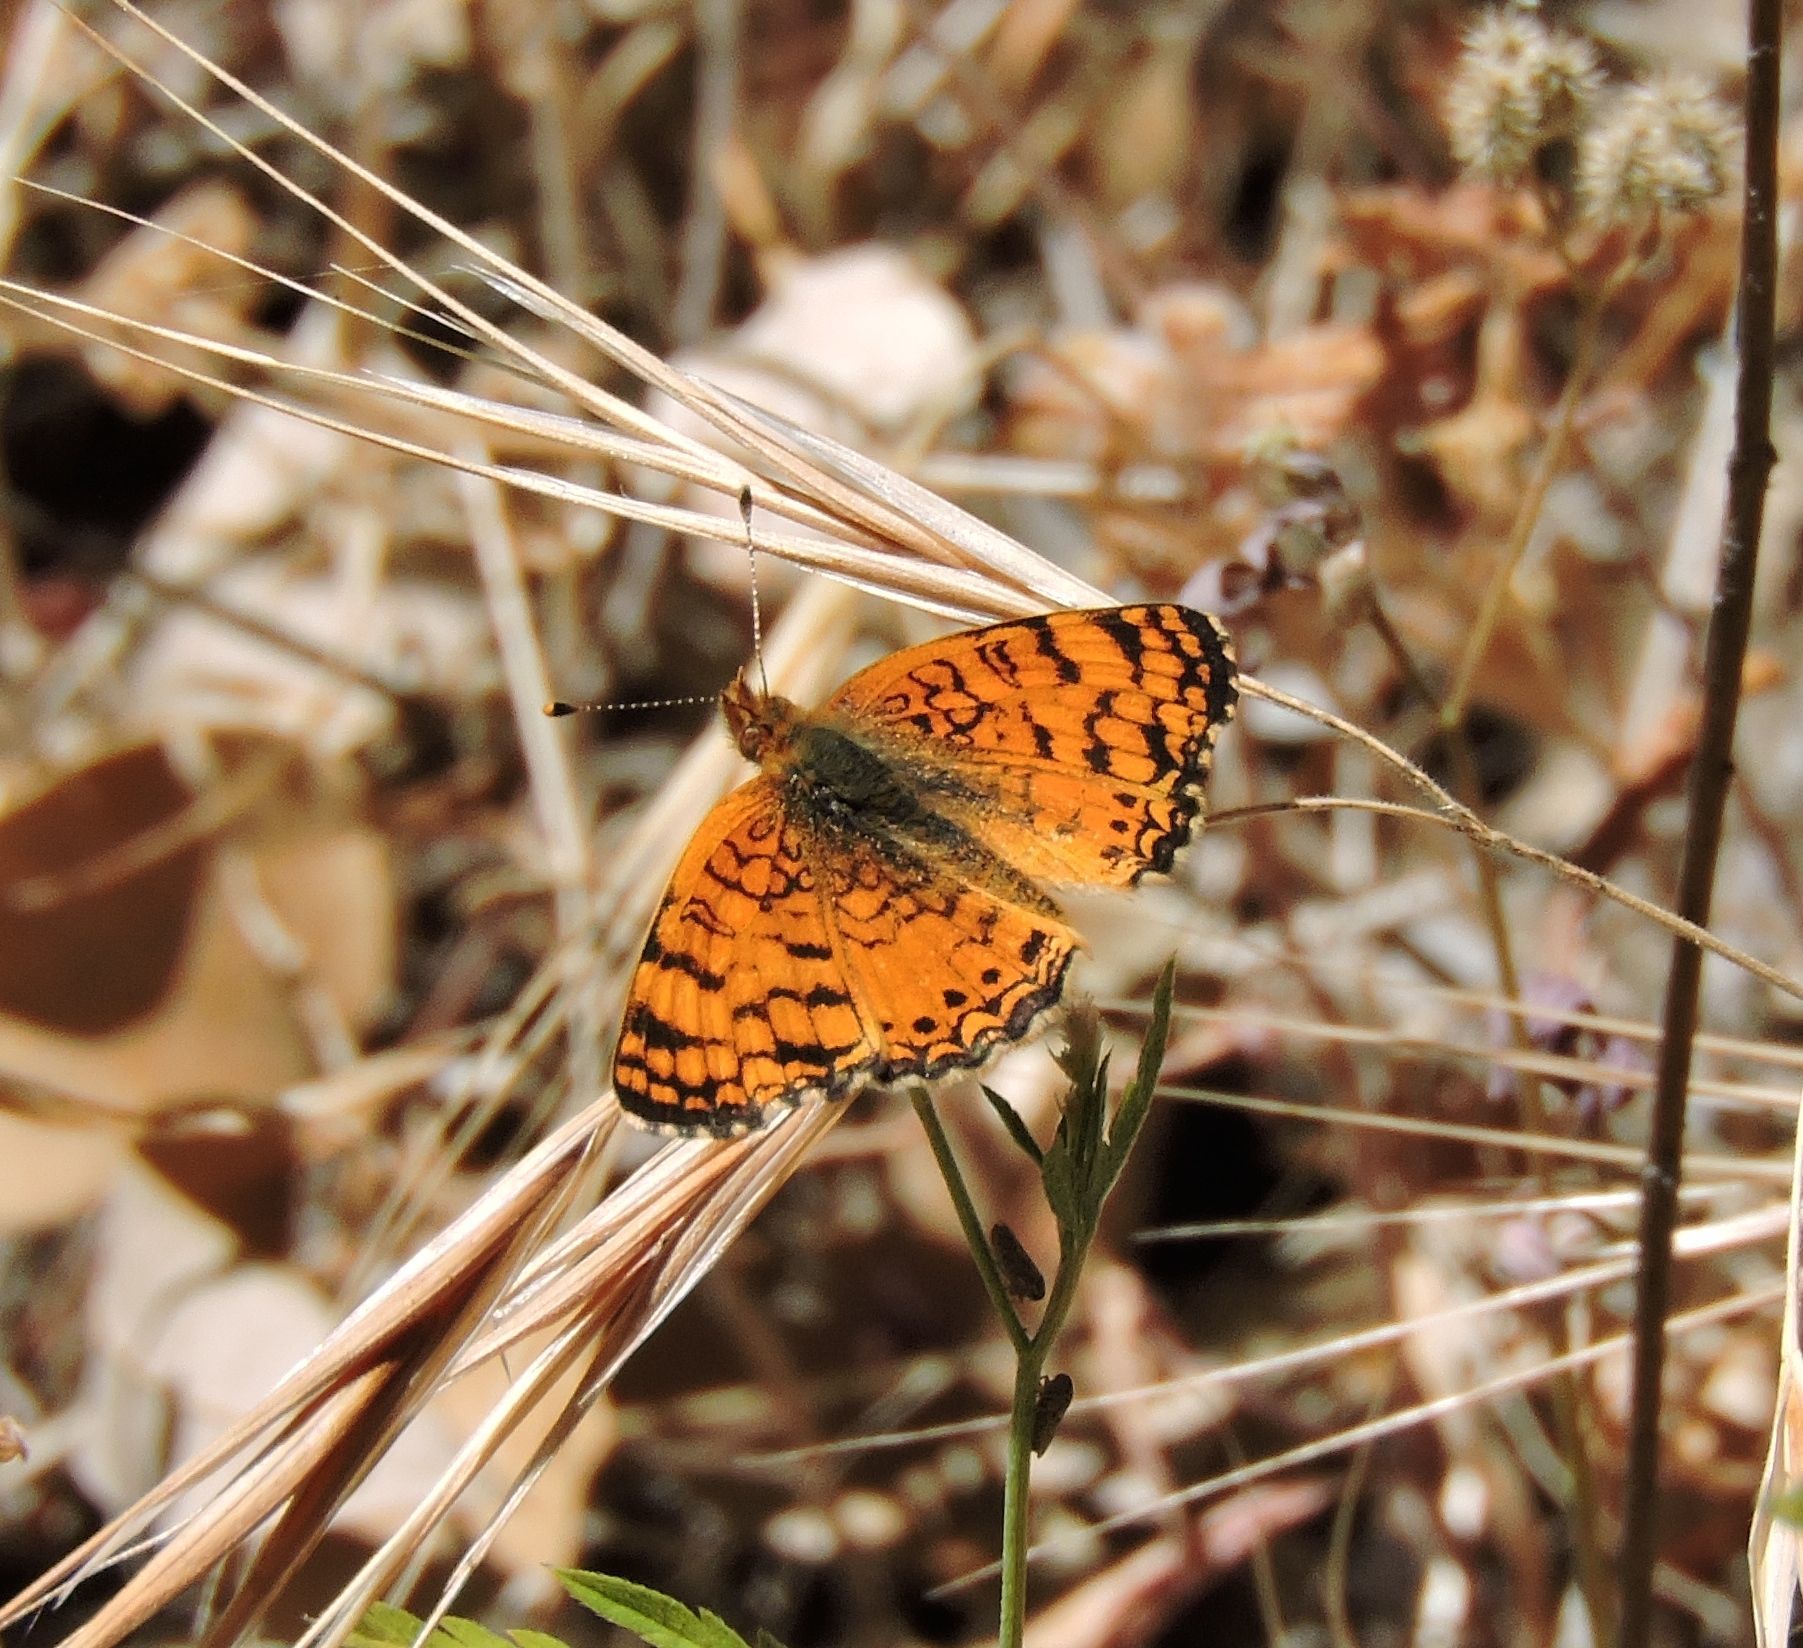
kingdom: Animalia
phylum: Arthropoda
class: Insecta
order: Lepidoptera
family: Nymphalidae
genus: Eresia
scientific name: Eresia aveyrona
